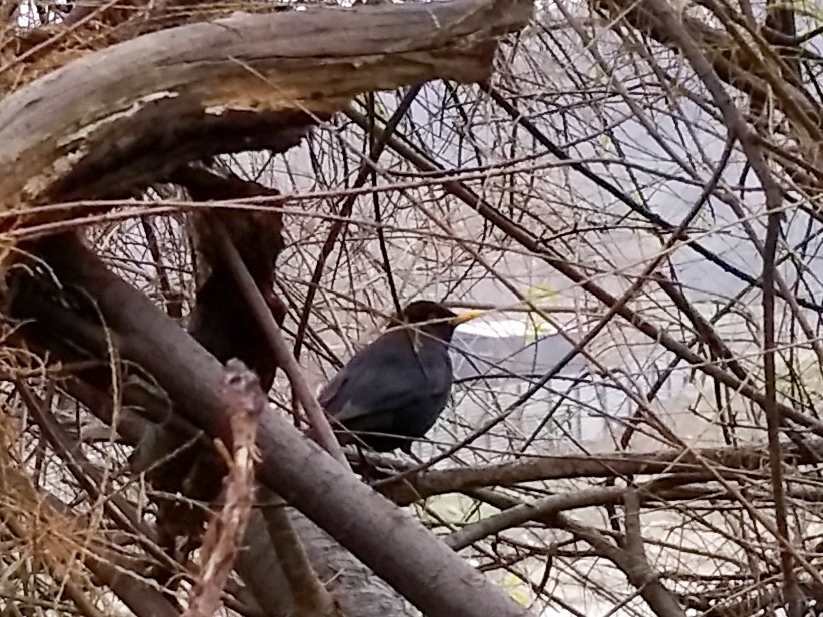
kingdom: Animalia
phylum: Chordata
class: Aves
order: Passeriformes
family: Turdidae
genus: Turdus
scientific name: Turdus merula
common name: Common blackbird
